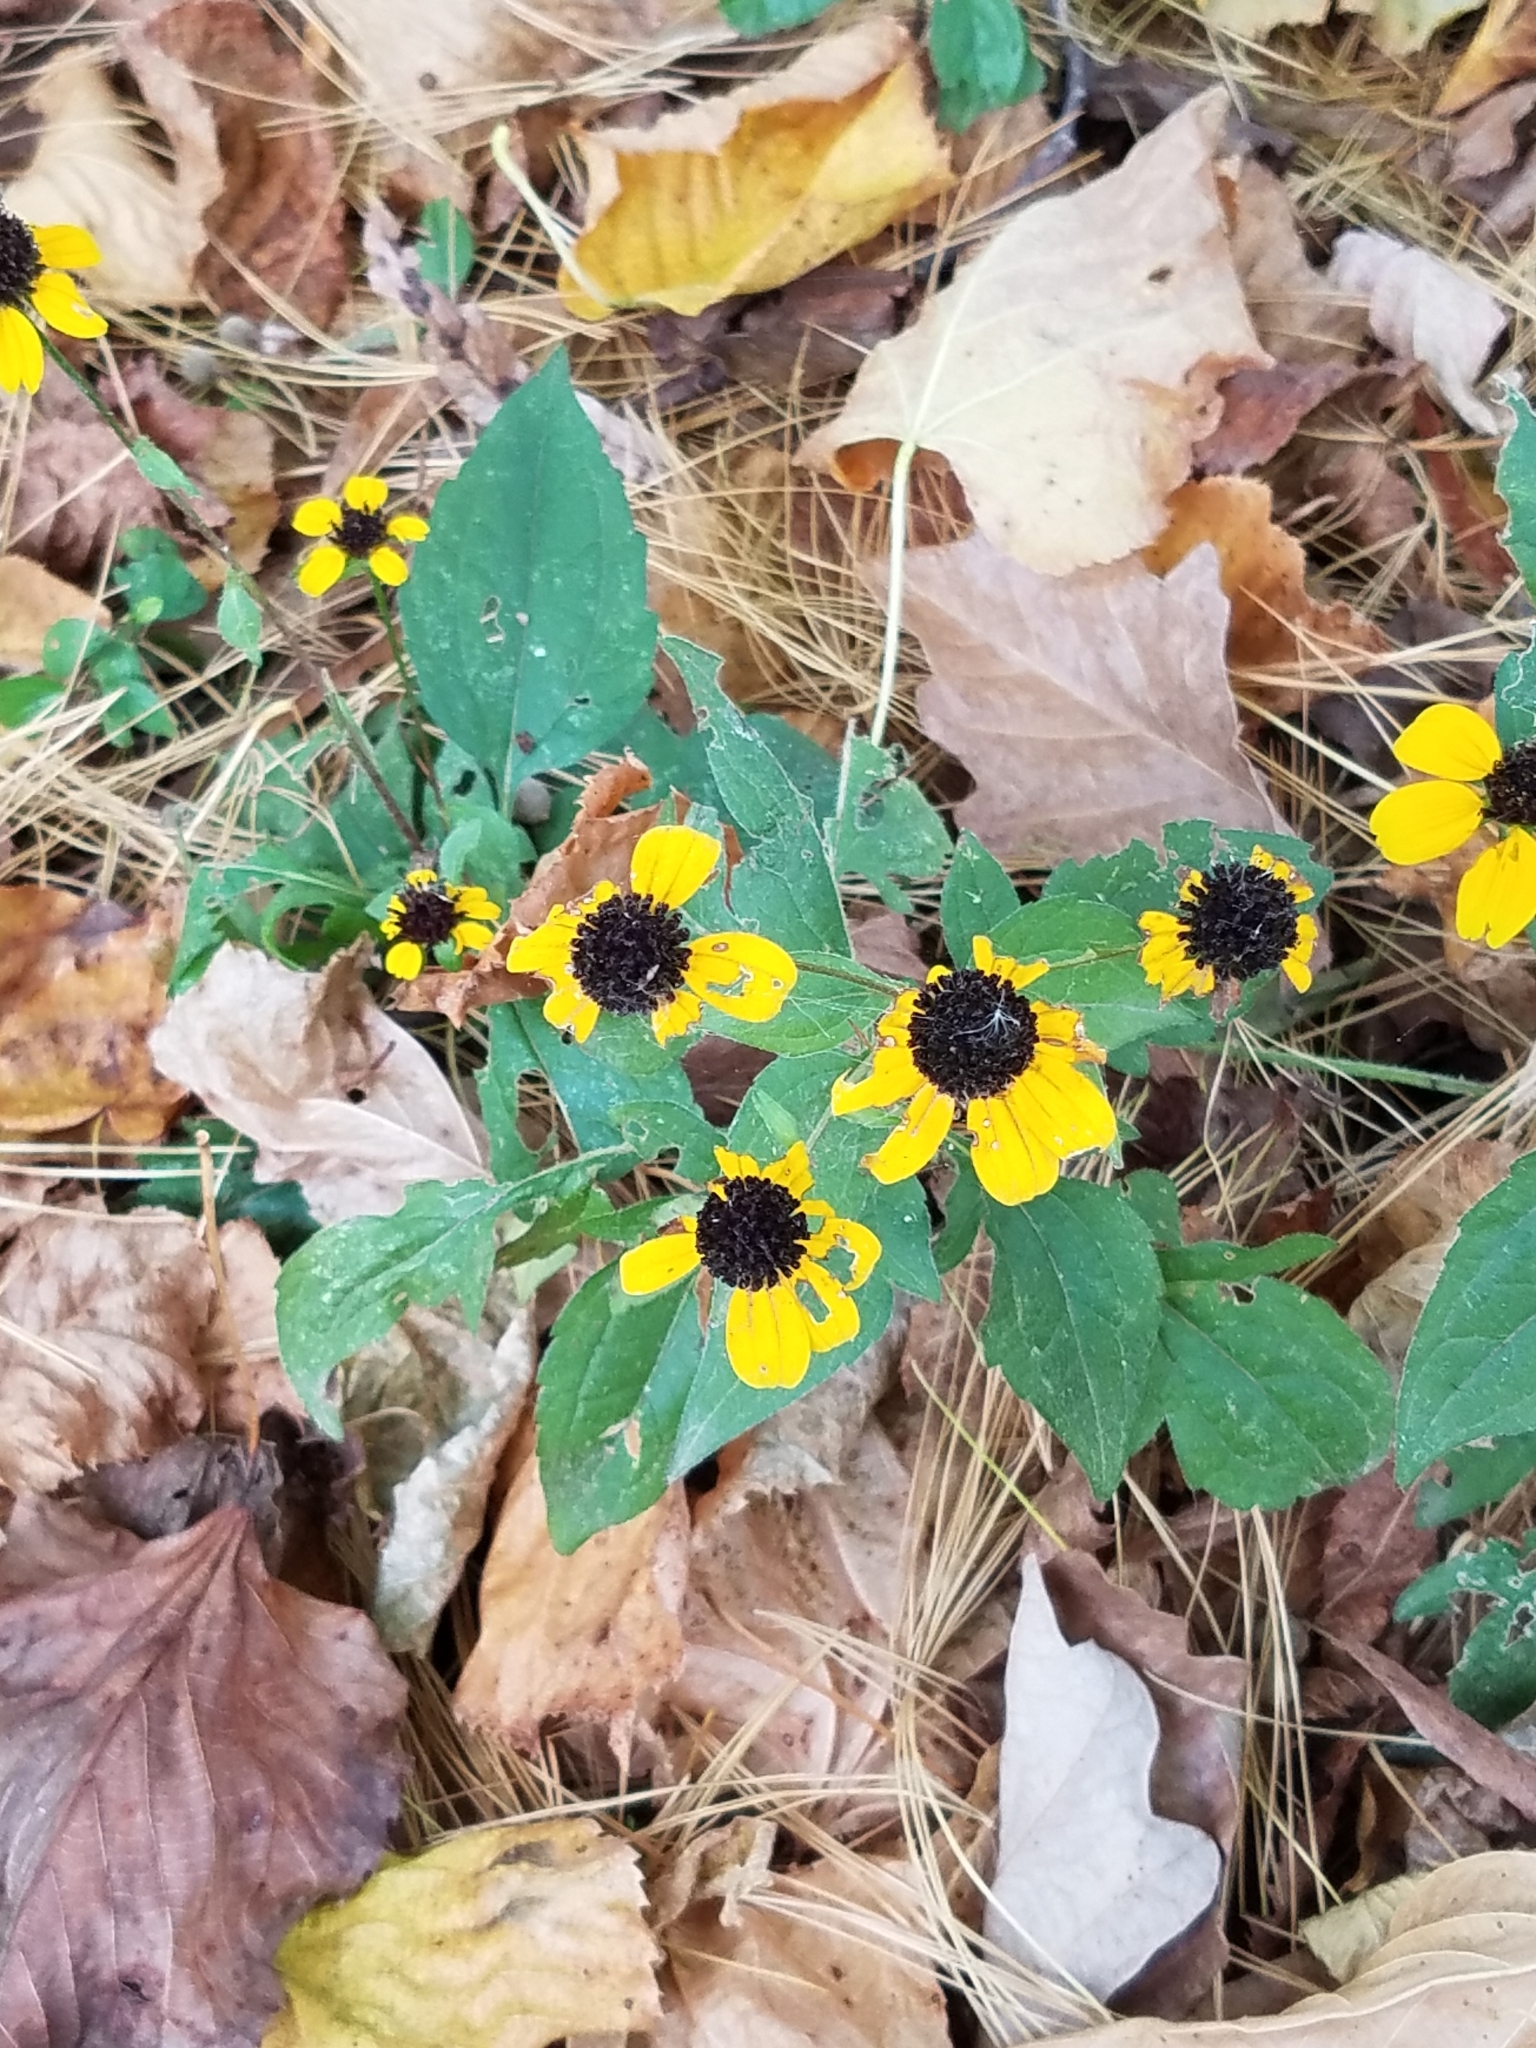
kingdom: Plantae
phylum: Tracheophyta
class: Magnoliopsida
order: Asterales
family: Asteraceae
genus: Rudbeckia
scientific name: Rudbeckia triloba
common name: Thin-leaved coneflower
